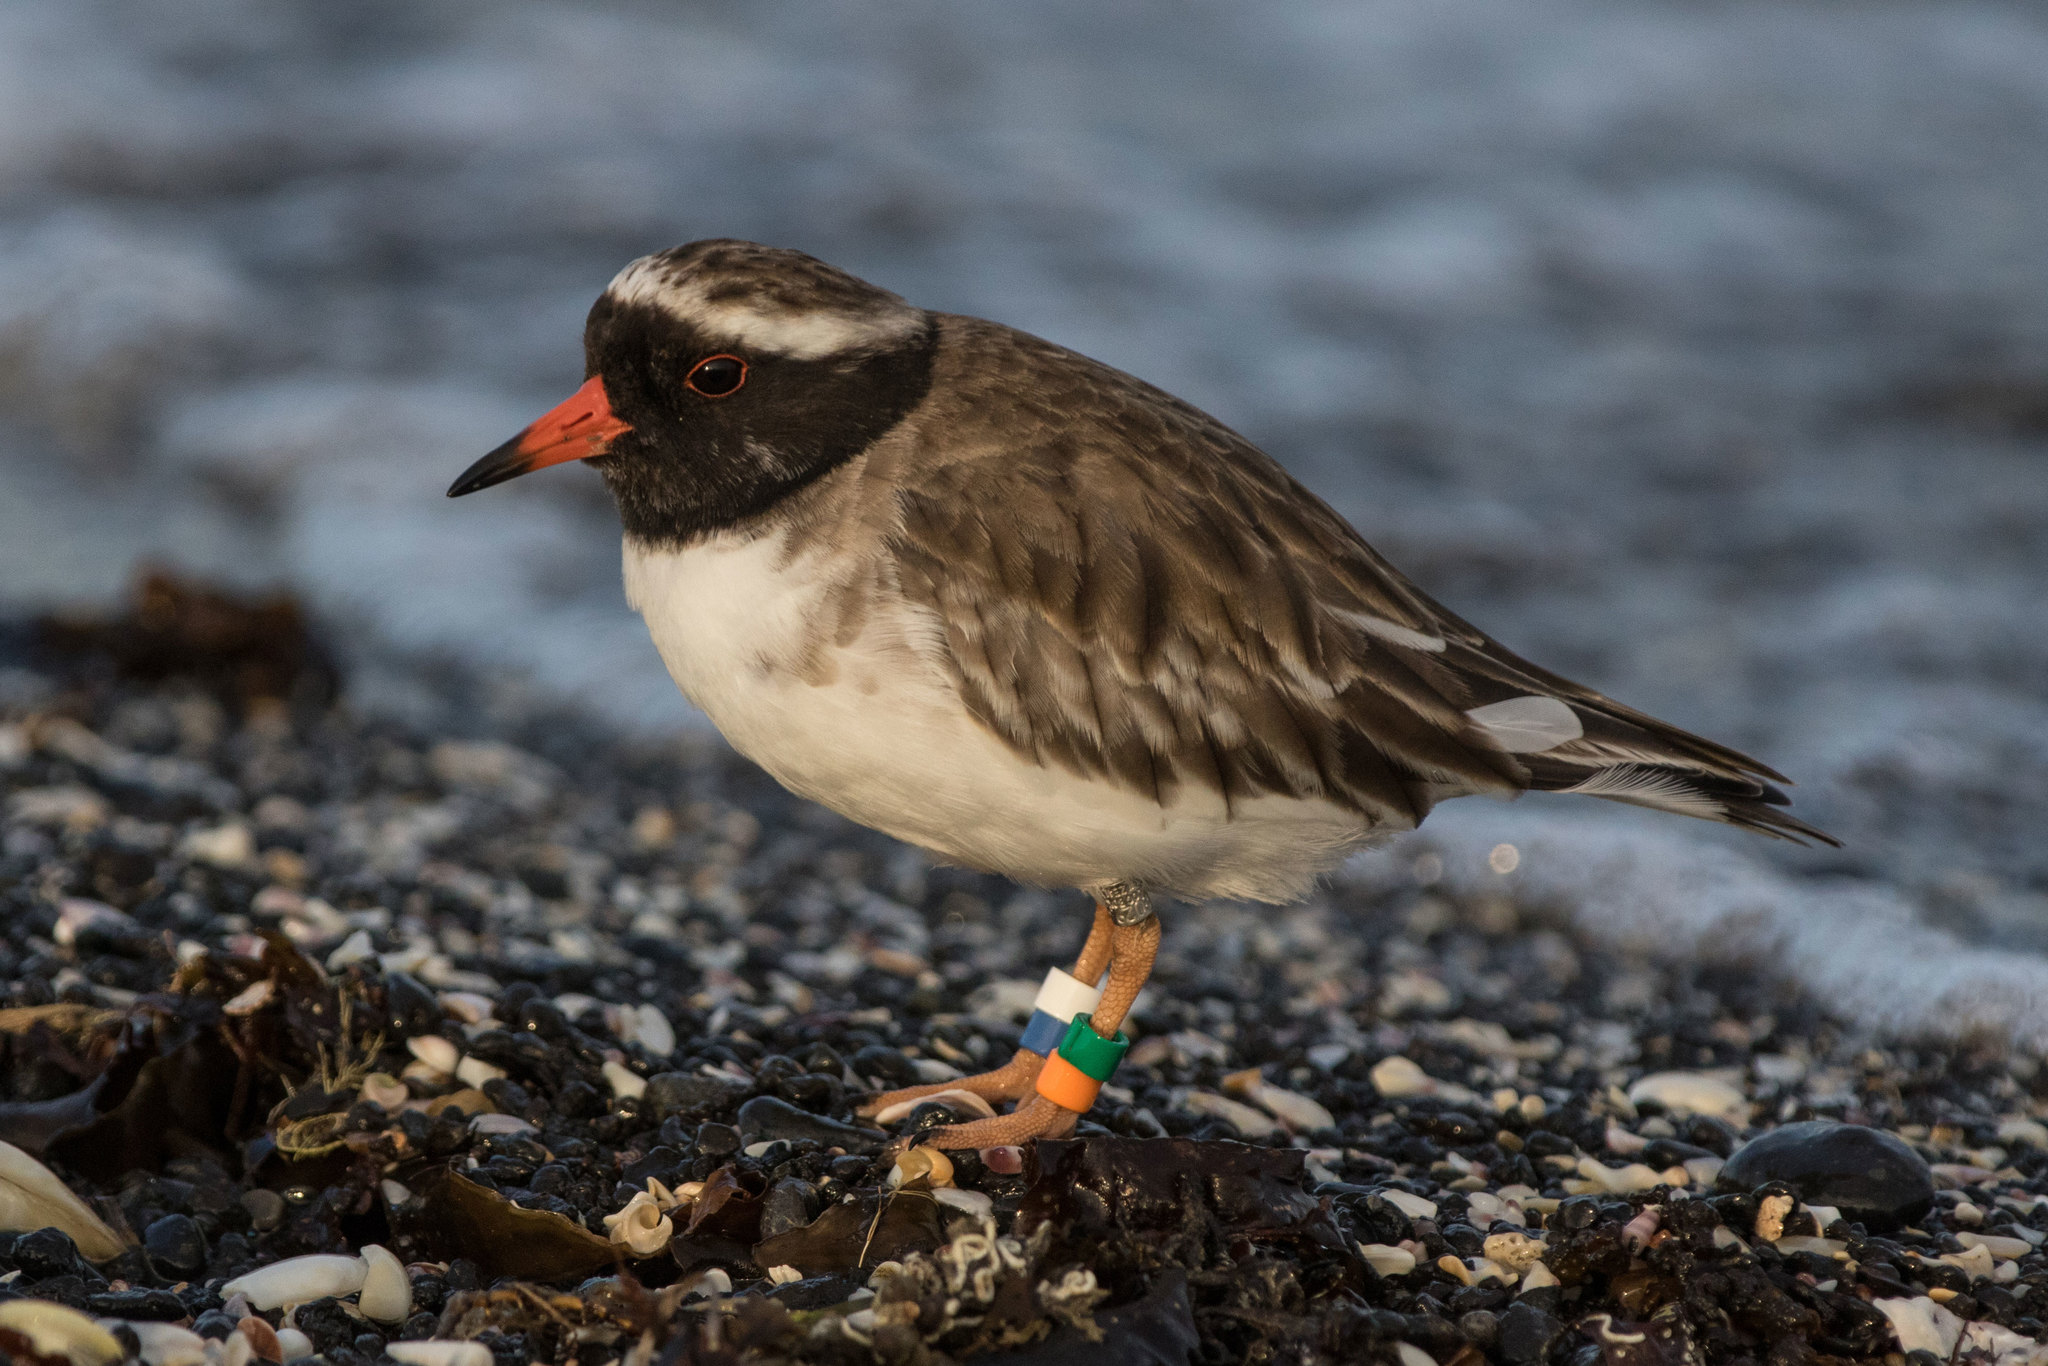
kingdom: Animalia
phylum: Chordata
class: Aves
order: Charadriiformes
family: Charadriidae
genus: Thinornis
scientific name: Thinornis novaeseelandiae
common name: Shore dotterel
